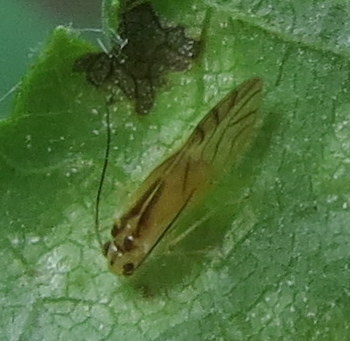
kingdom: Animalia
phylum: Arthropoda
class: Insecta
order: Psocodea
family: Caeciliusidae
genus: Valenzuela
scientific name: Valenzuela flavidus
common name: Yellow barklouse
